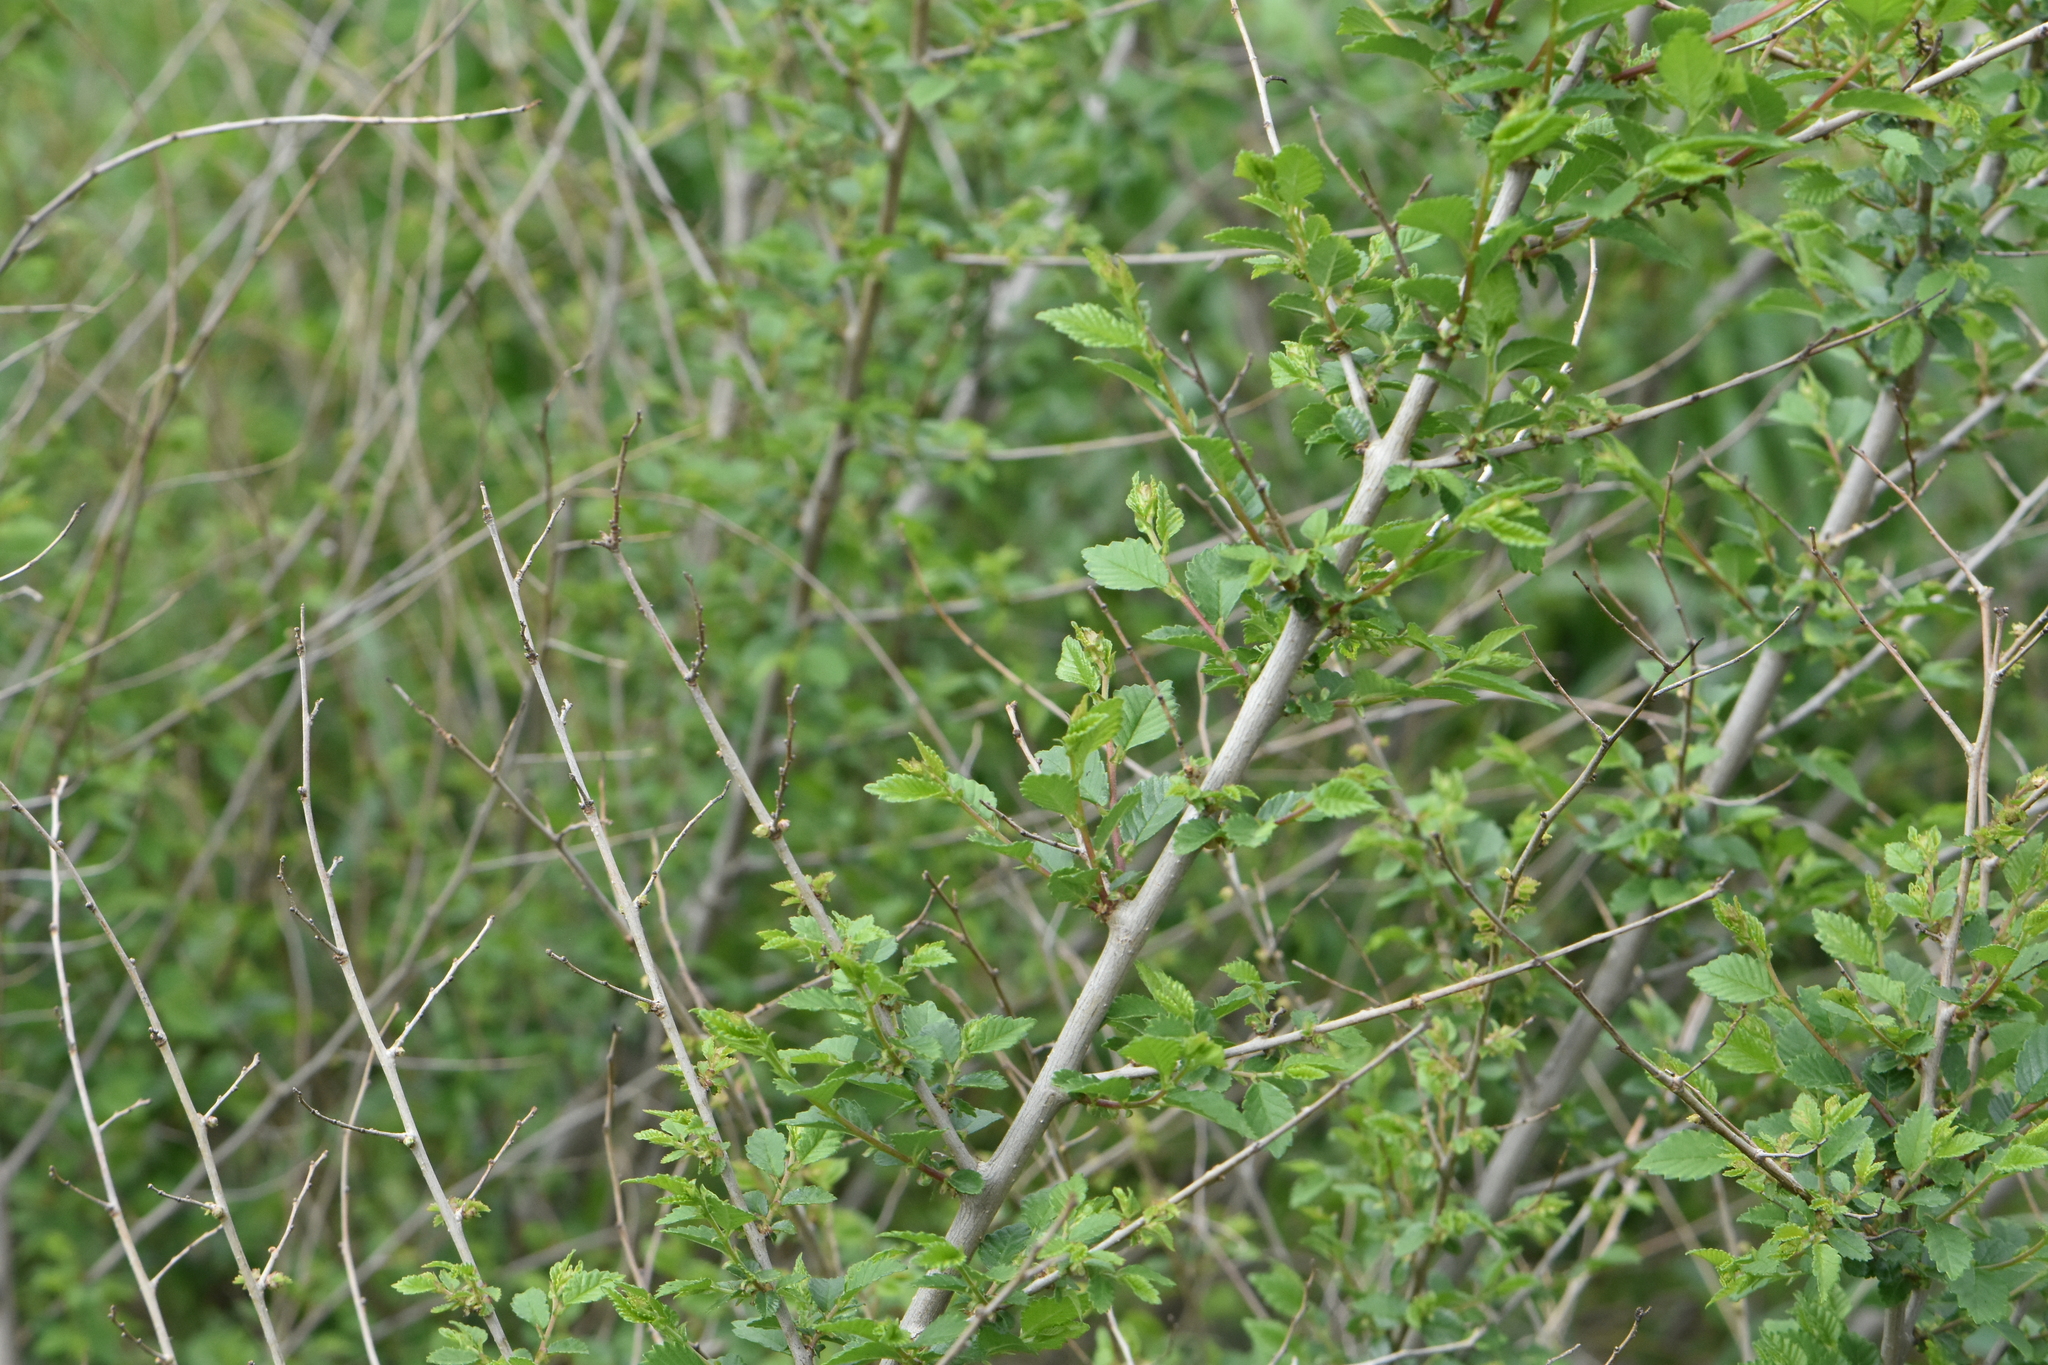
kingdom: Plantae
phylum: Tracheophyta
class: Magnoliopsida
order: Rosales
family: Ulmaceae
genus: Ulmus
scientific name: Ulmus pumila
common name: Siberian elm
